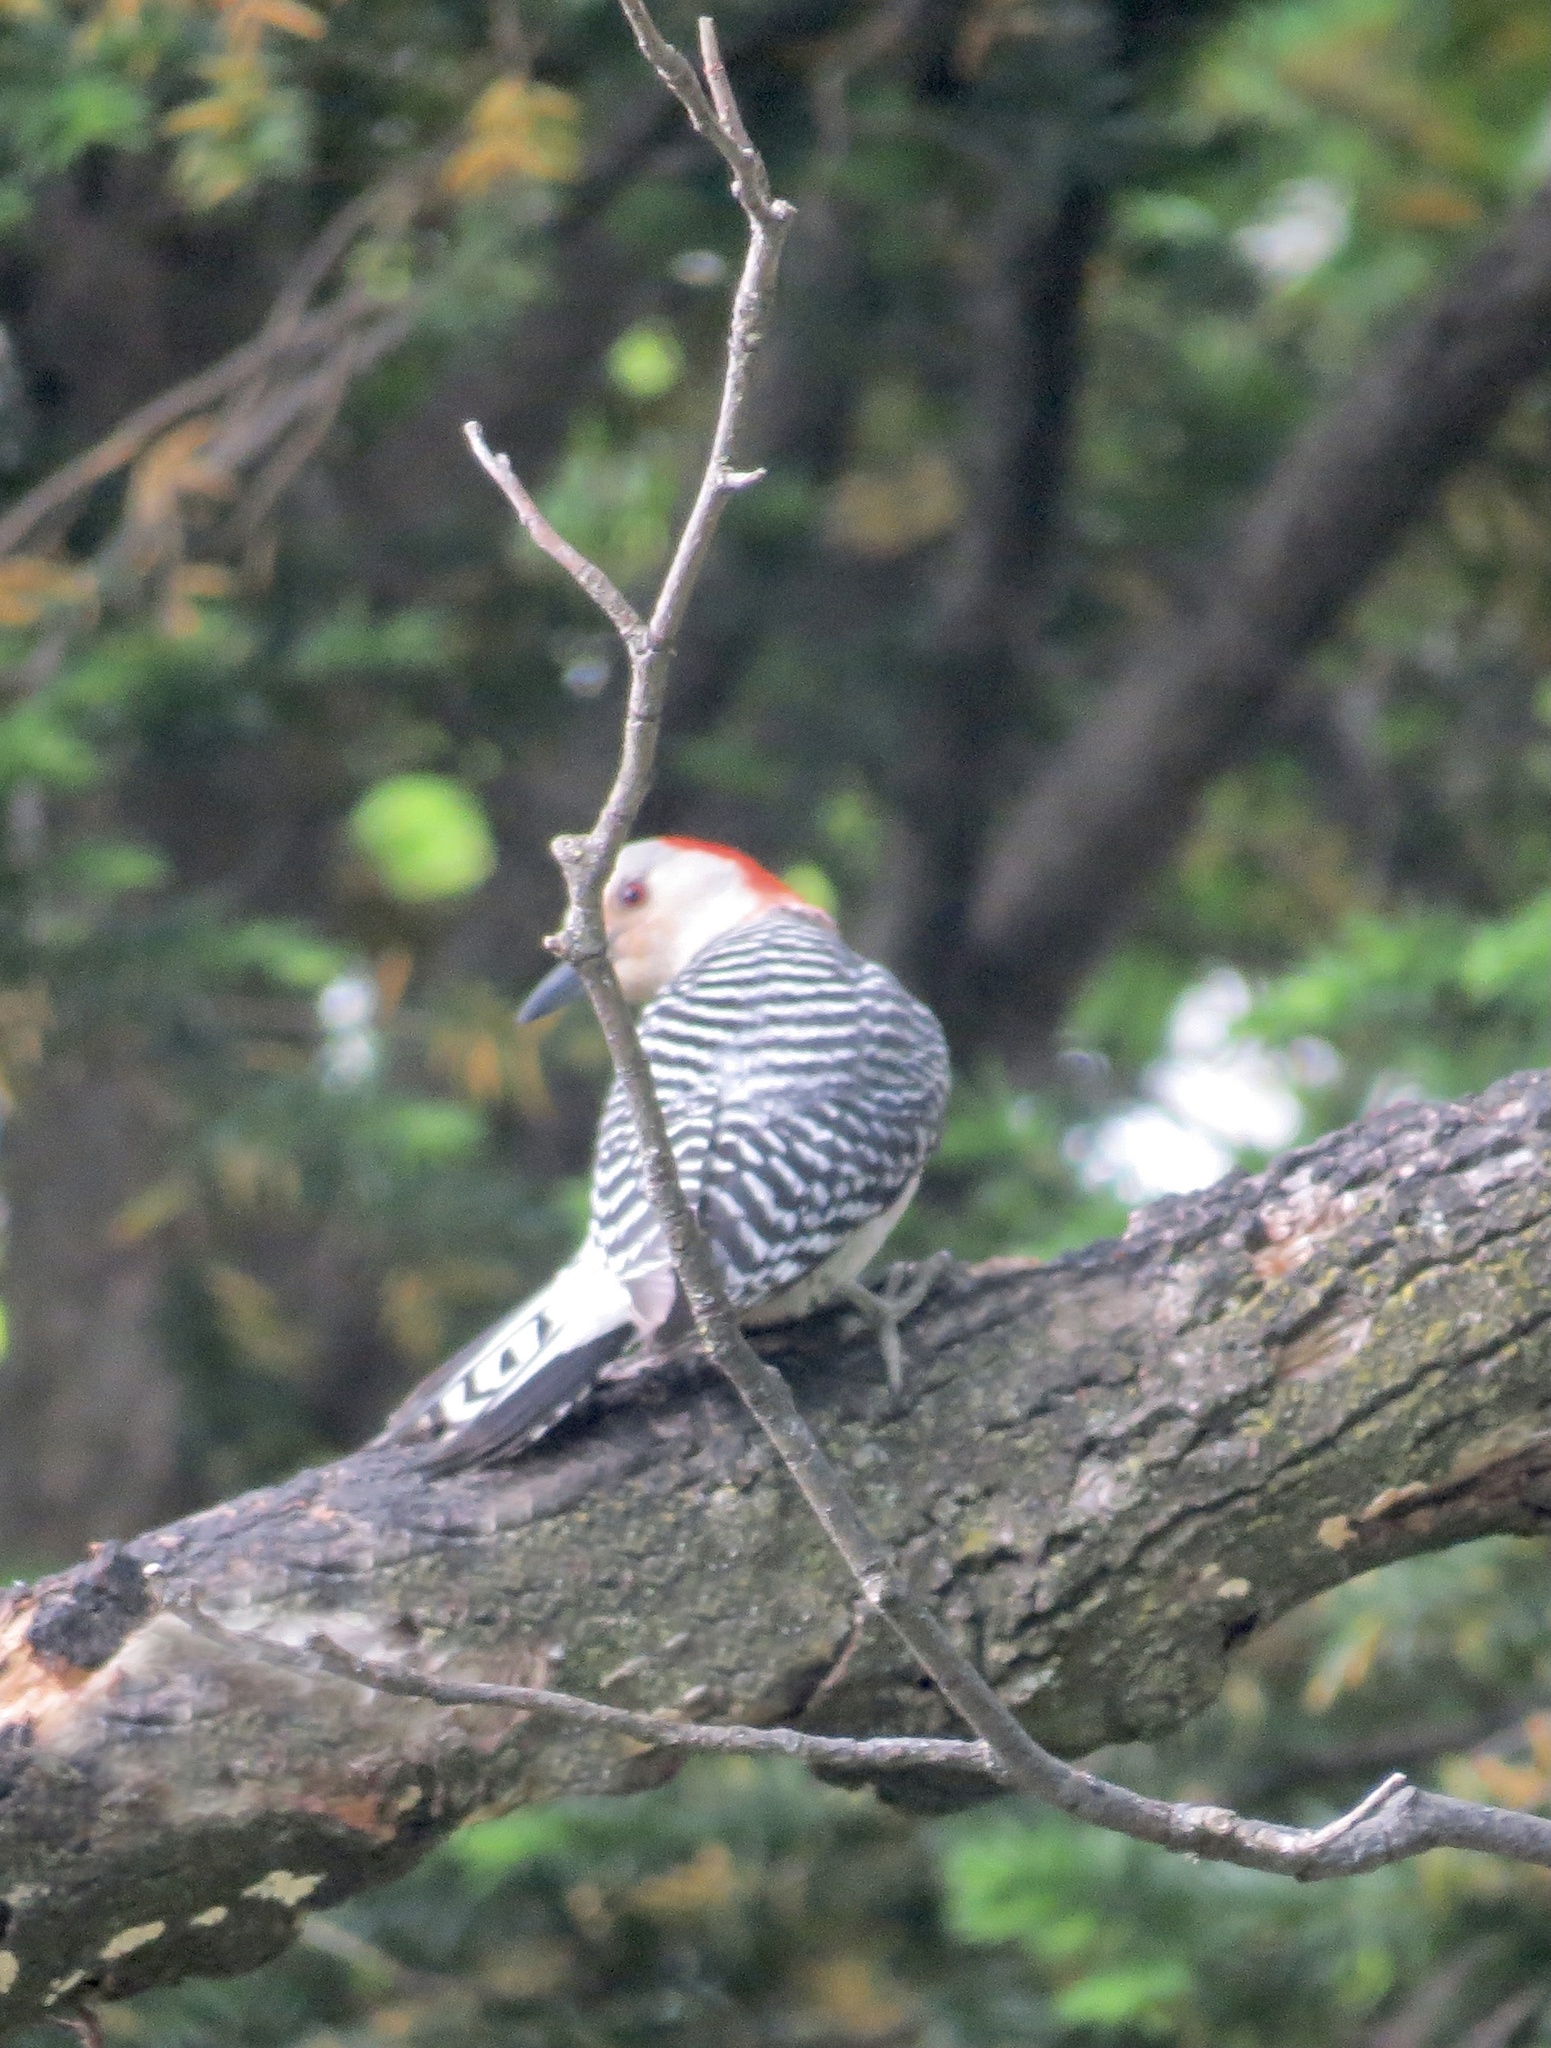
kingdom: Animalia
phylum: Chordata
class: Aves
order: Piciformes
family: Picidae
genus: Melanerpes
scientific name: Melanerpes carolinus
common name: Red-bellied woodpecker
